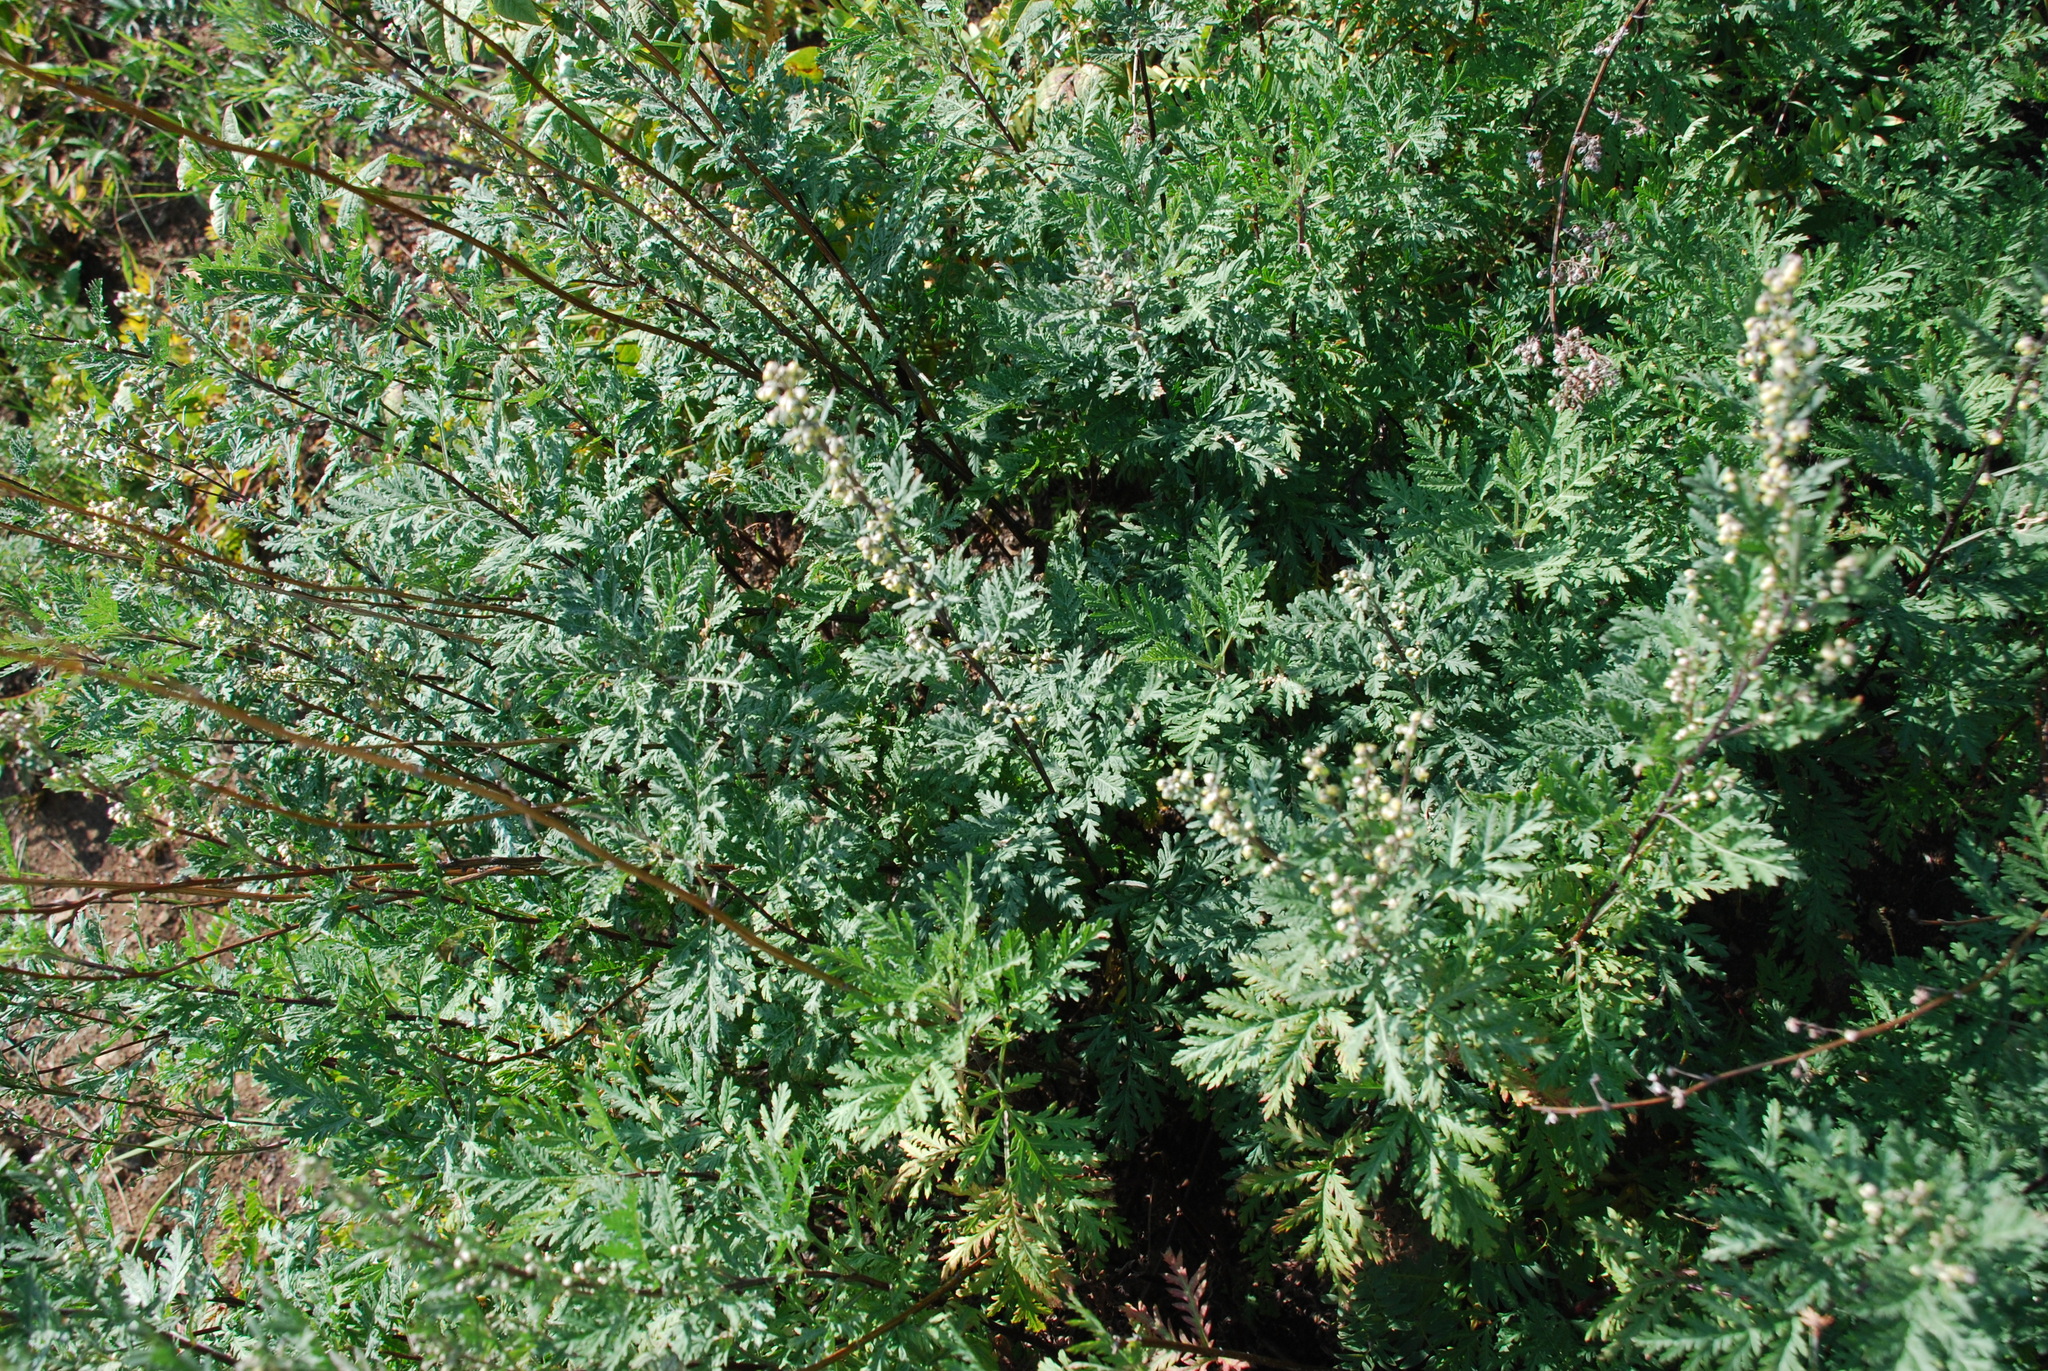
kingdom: Plantae
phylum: Tracheophyta
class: Magnoliopsida
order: Asterales
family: Asteraceae
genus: Artemisia
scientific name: Artemisia gmelinii
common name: Gmelin's wormwood
